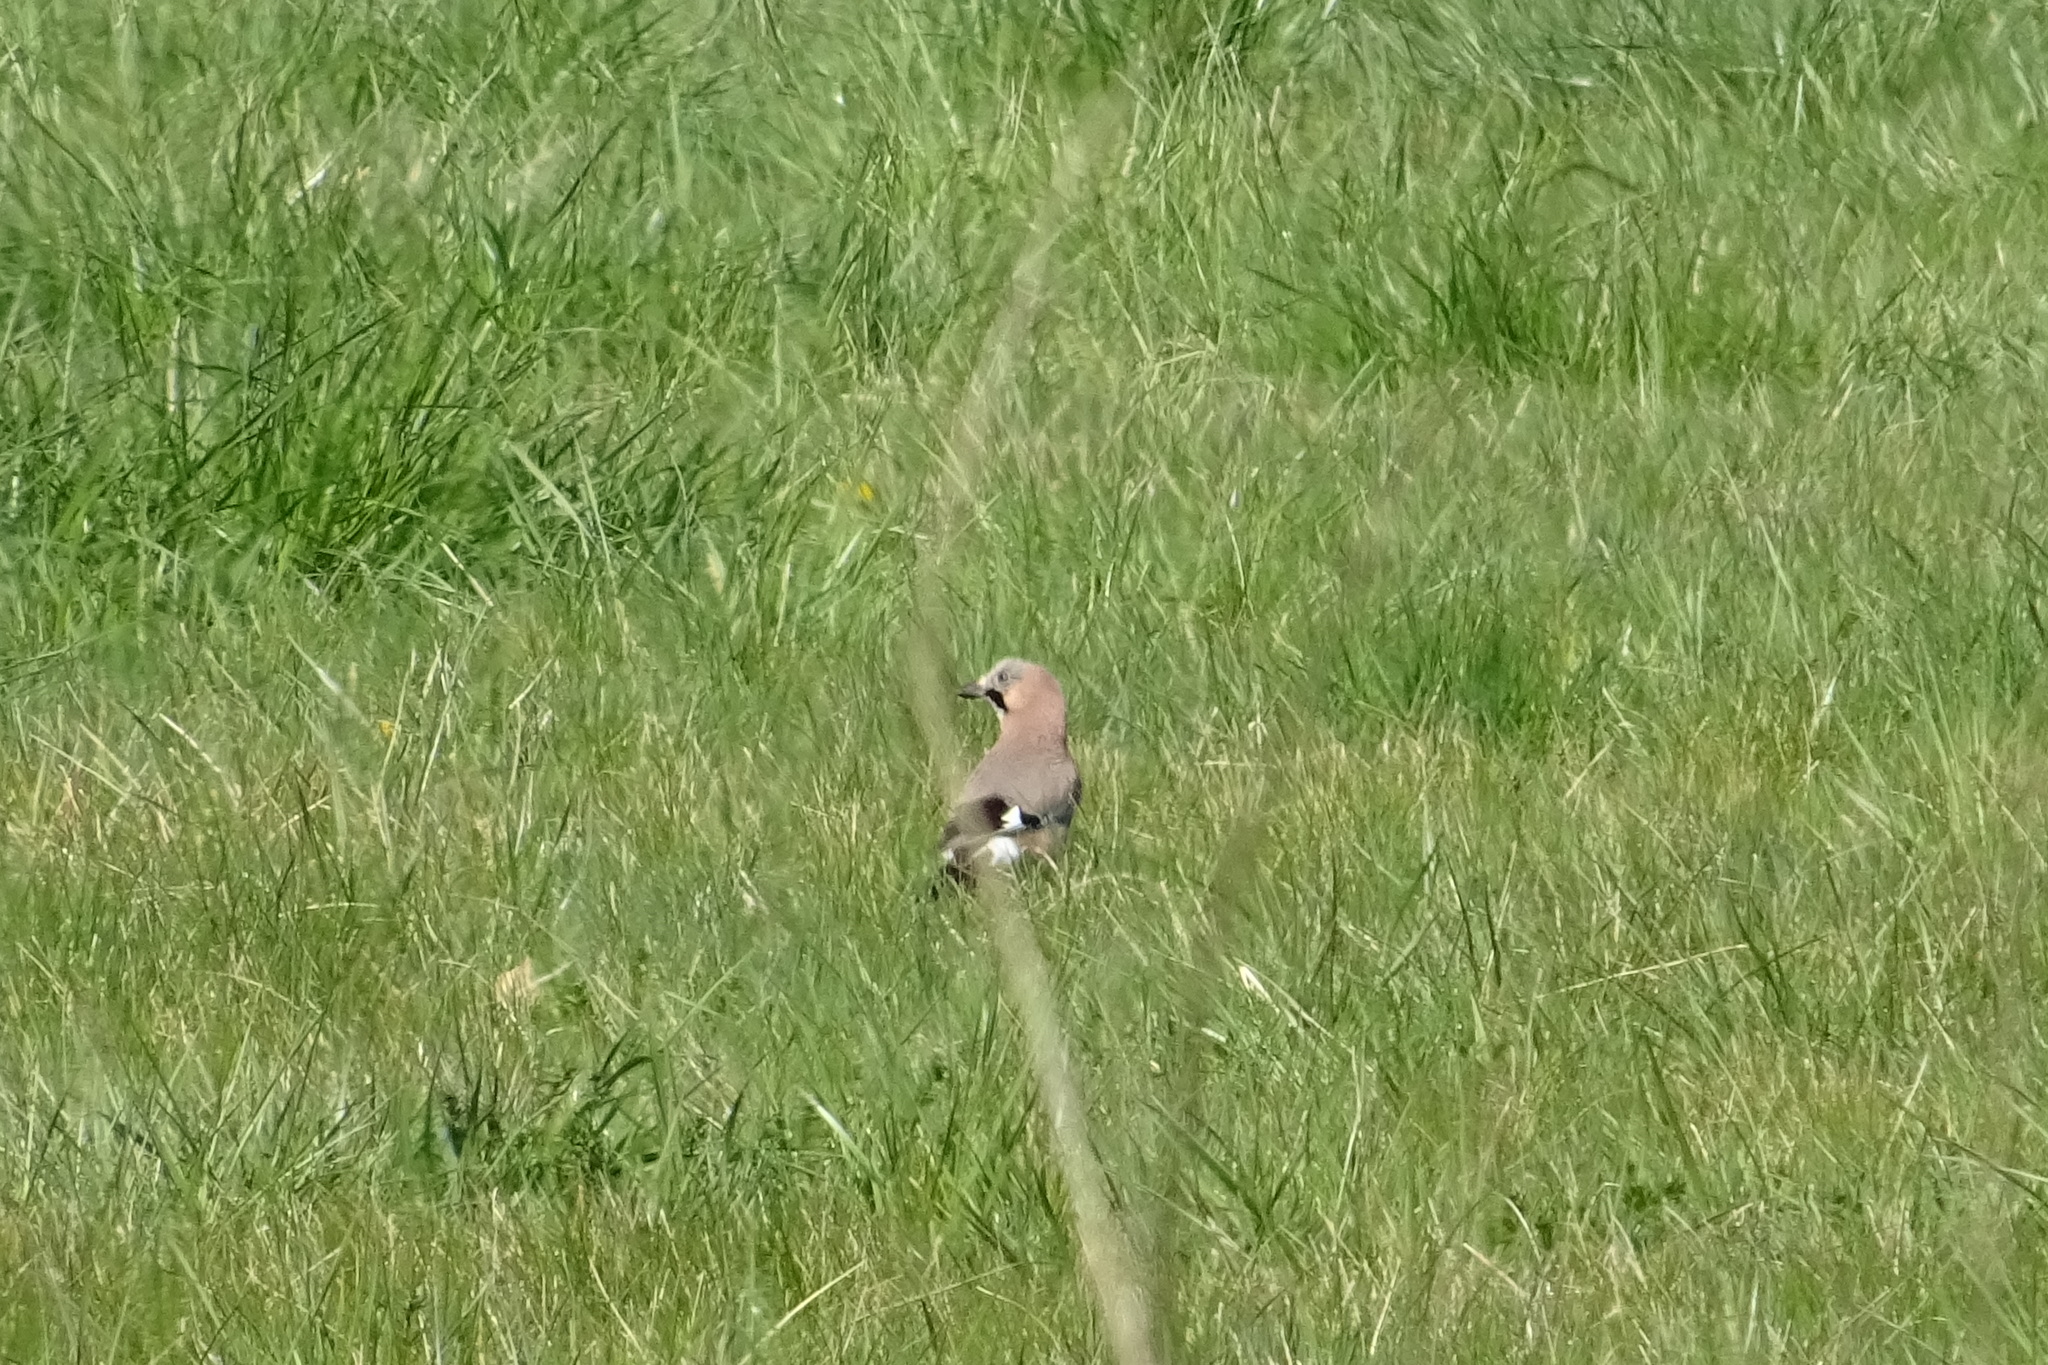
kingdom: Animalia
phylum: Chordata
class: Aves
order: Passeriformes
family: Corvidae
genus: Garrulus
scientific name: Garrulus glandarius
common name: Eurasian jay
